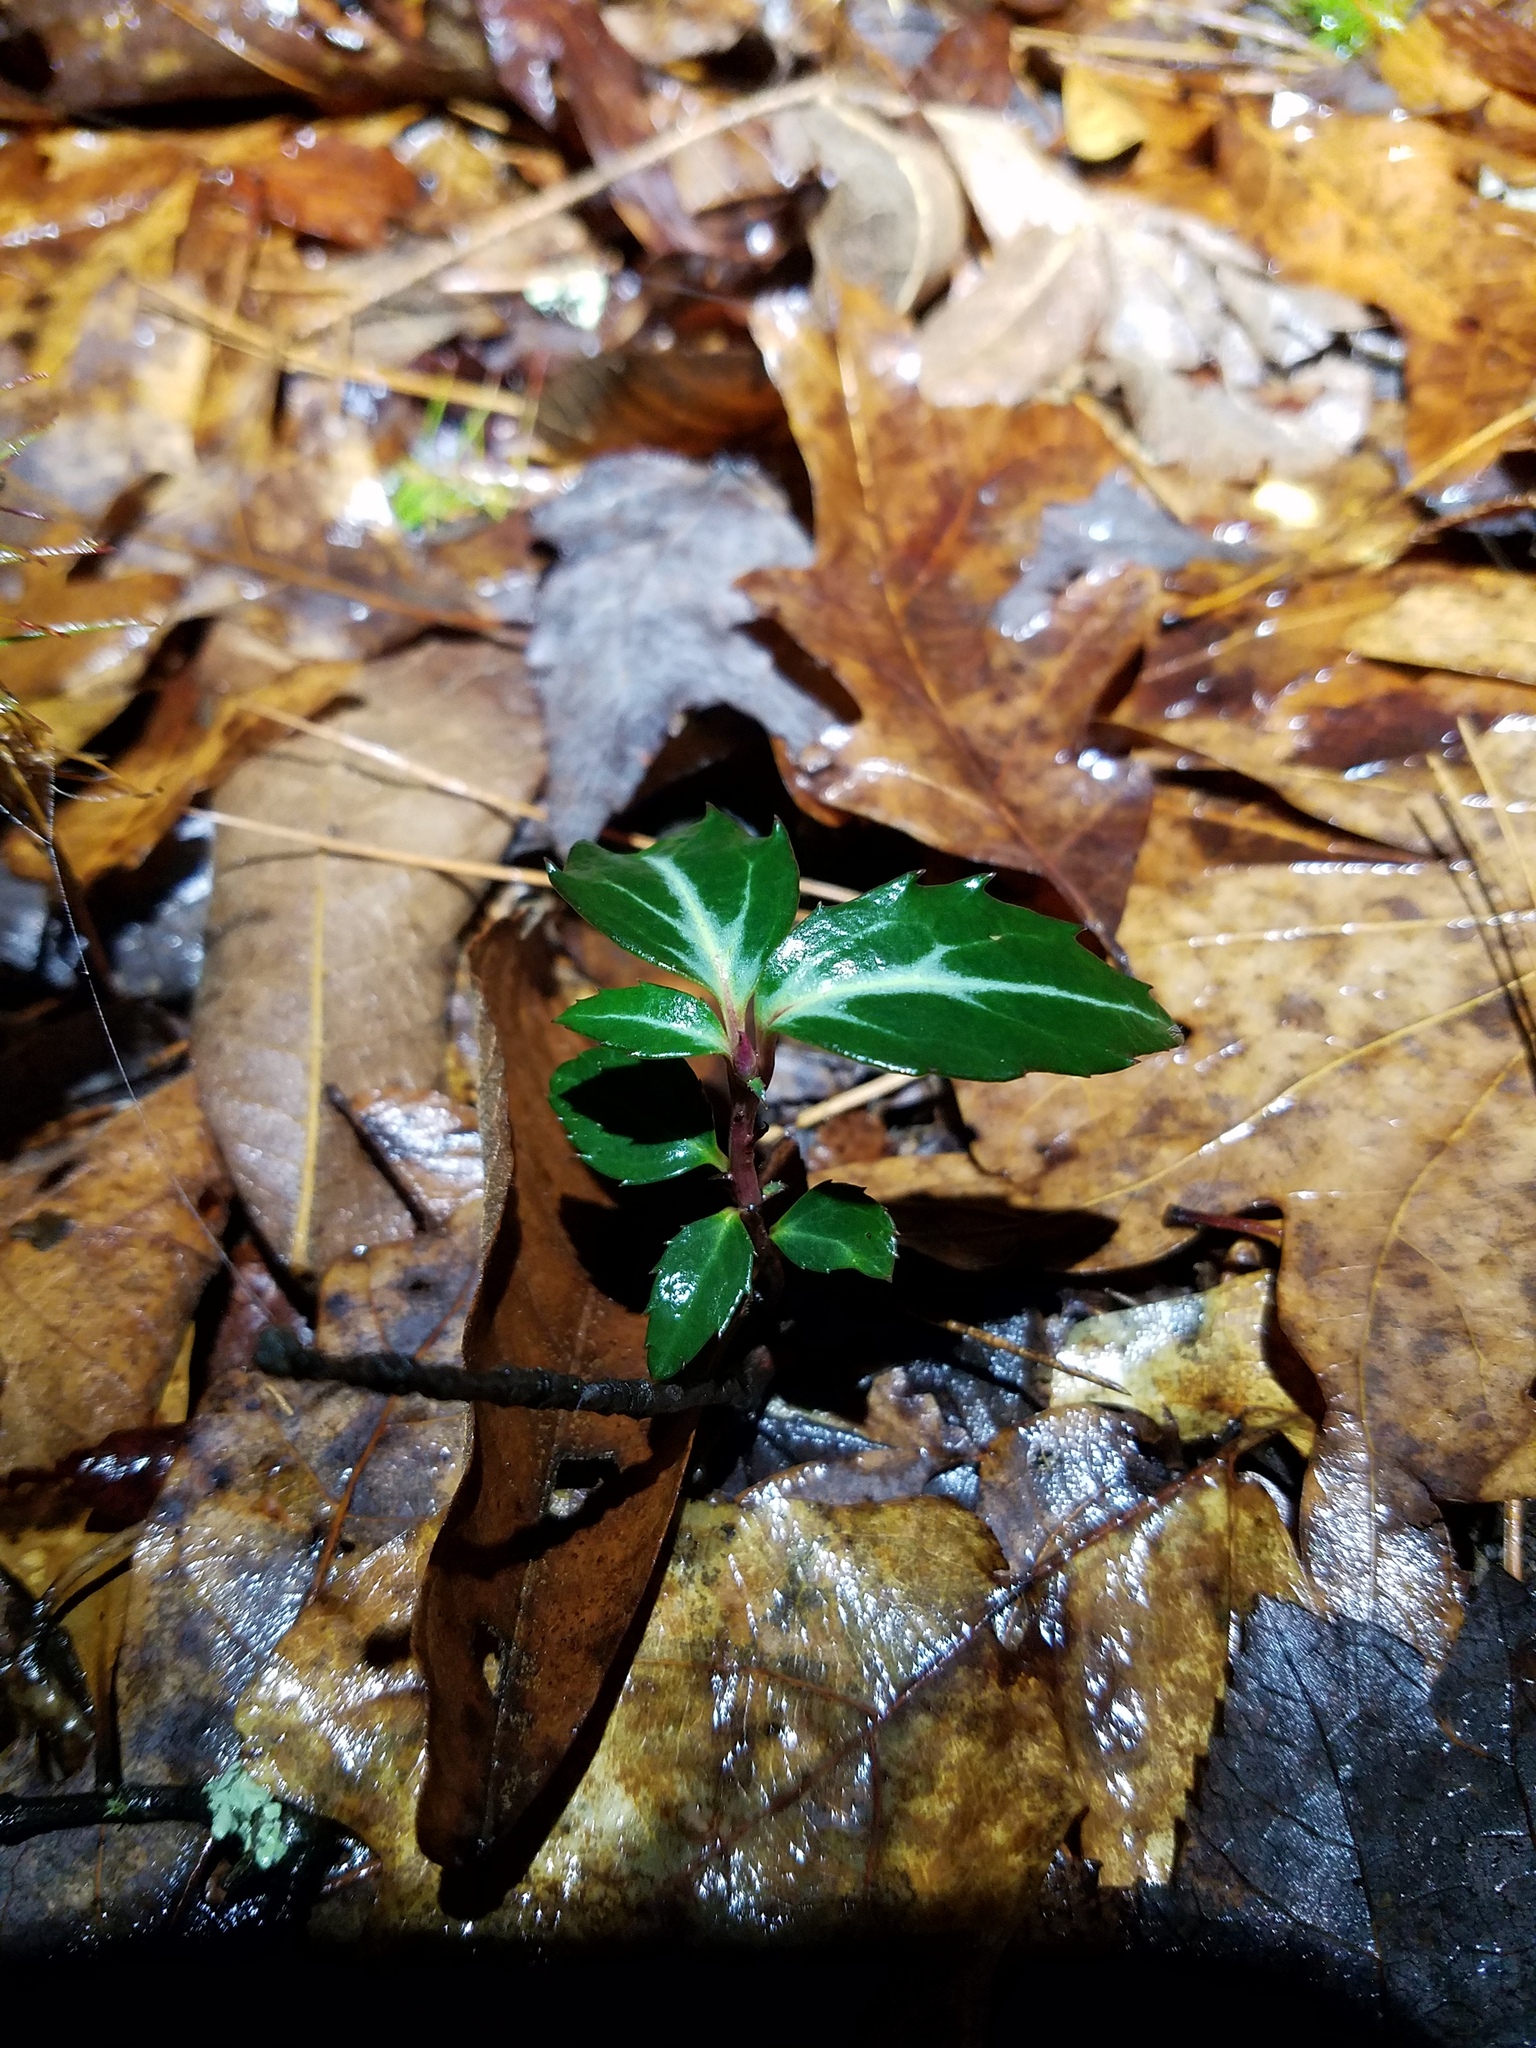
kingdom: Plantae
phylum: Tracheophyta
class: Magnoliopsida
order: Ericales
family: Ericaceae
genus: Chimaphila
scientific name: Chimaphila maculata
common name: Spotted pipsissewa
